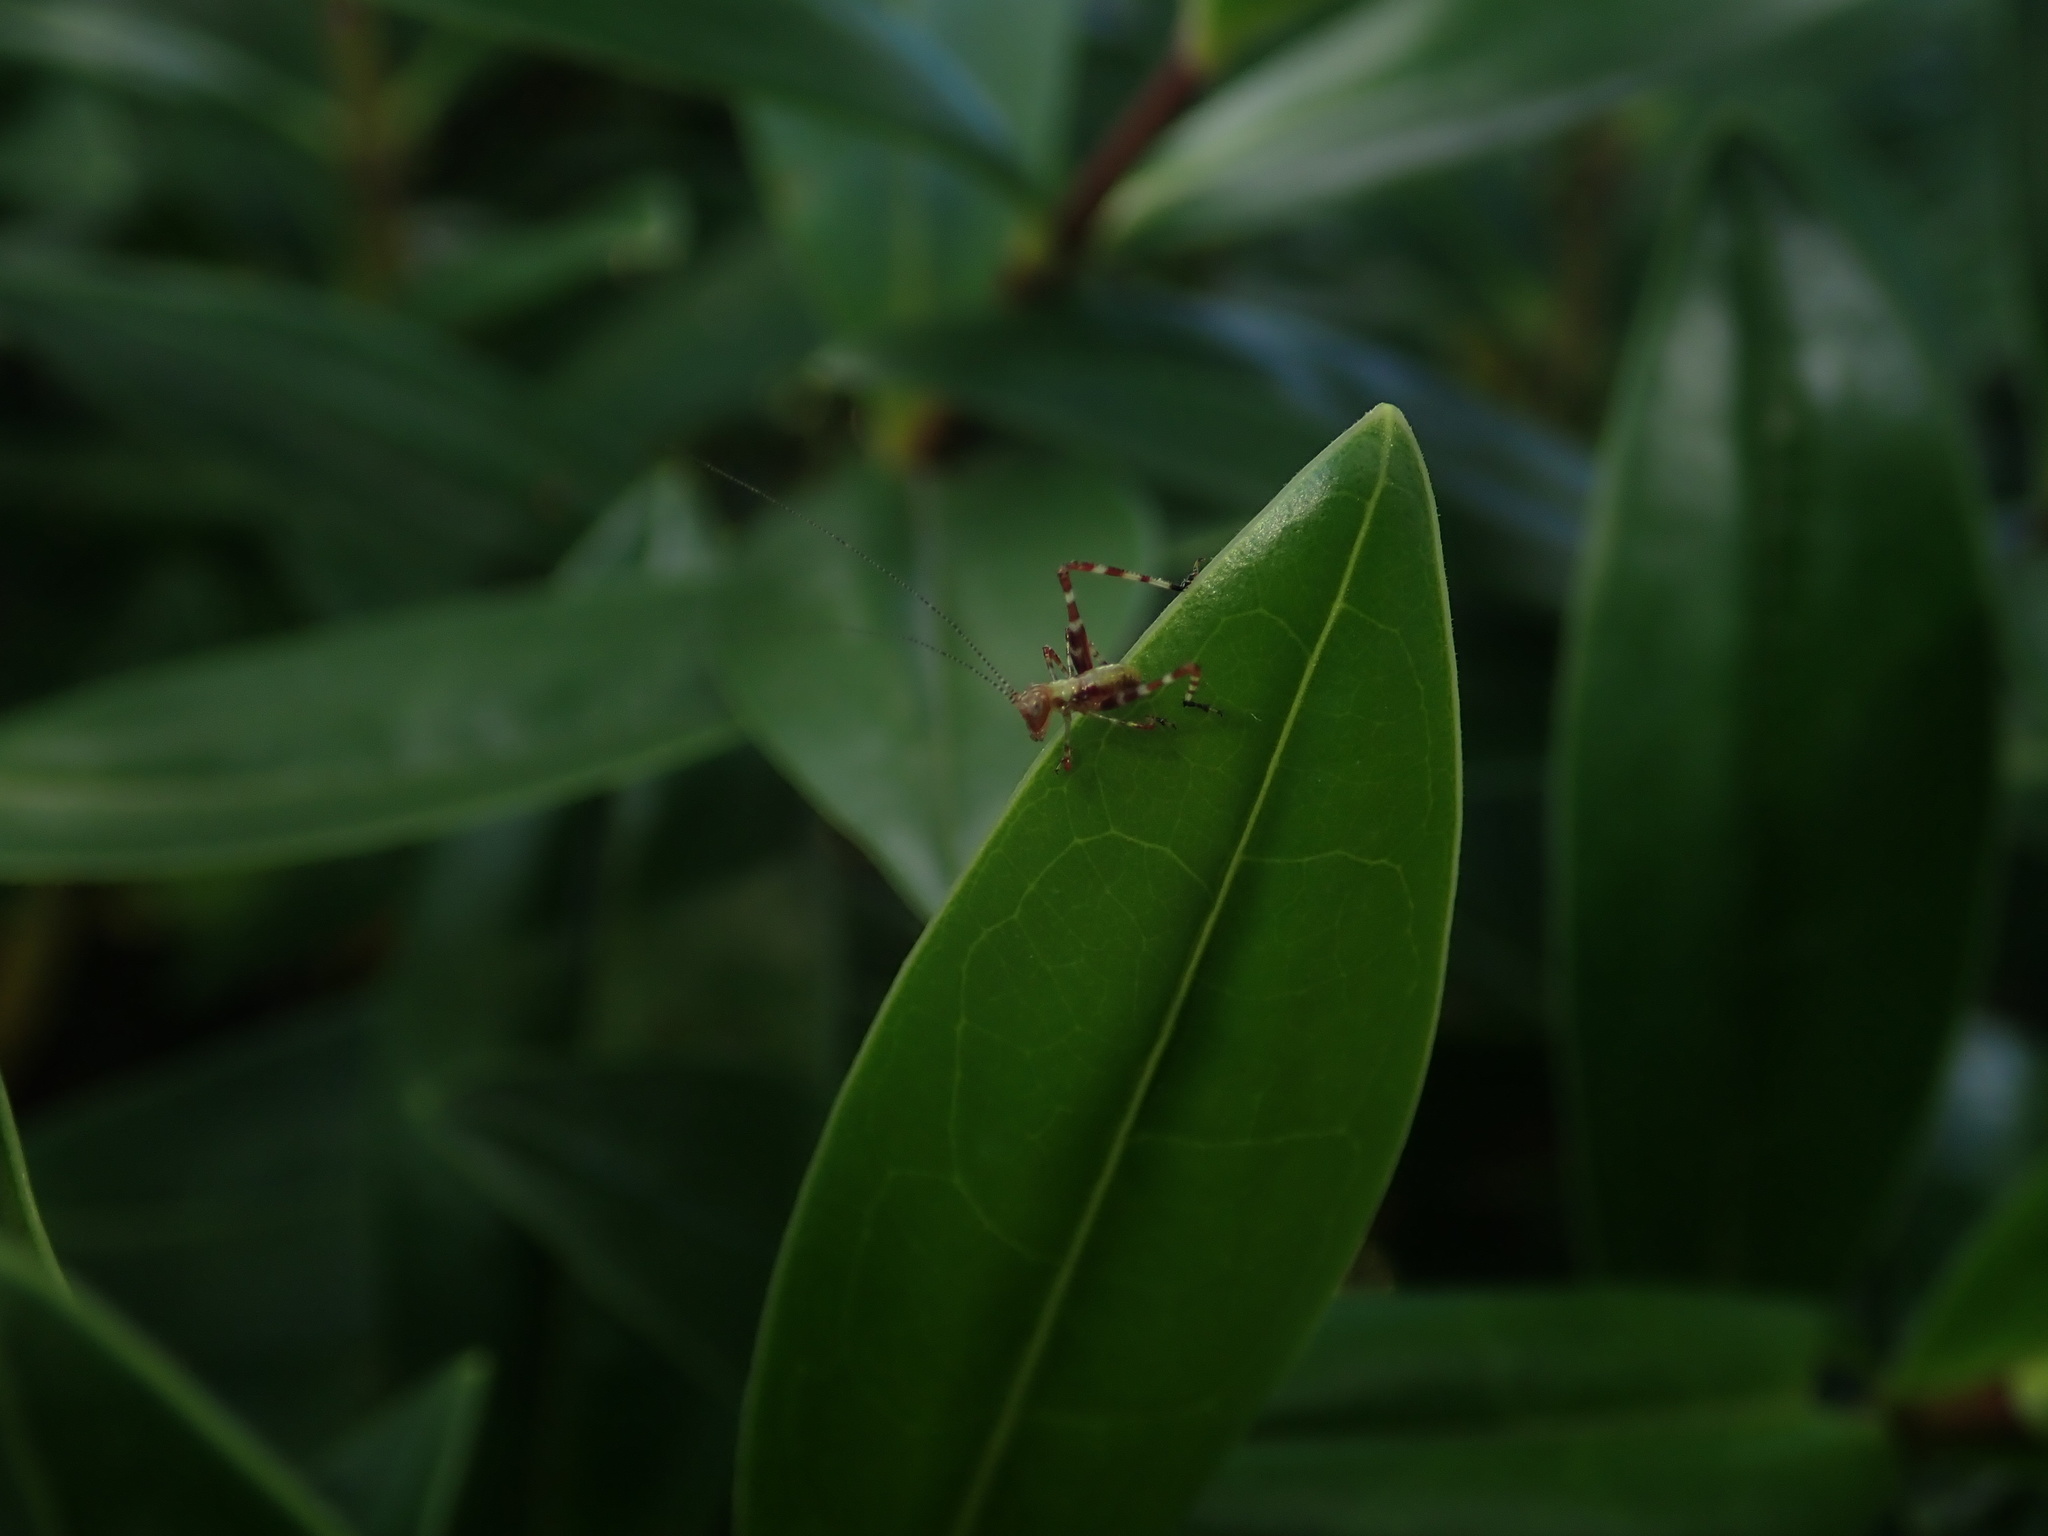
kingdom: Animalia
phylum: Arthropoda
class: Insecta
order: Orthoptera
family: Tettigoniidae
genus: Caedicia
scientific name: Caedicia simplex
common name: Common garden katydid
